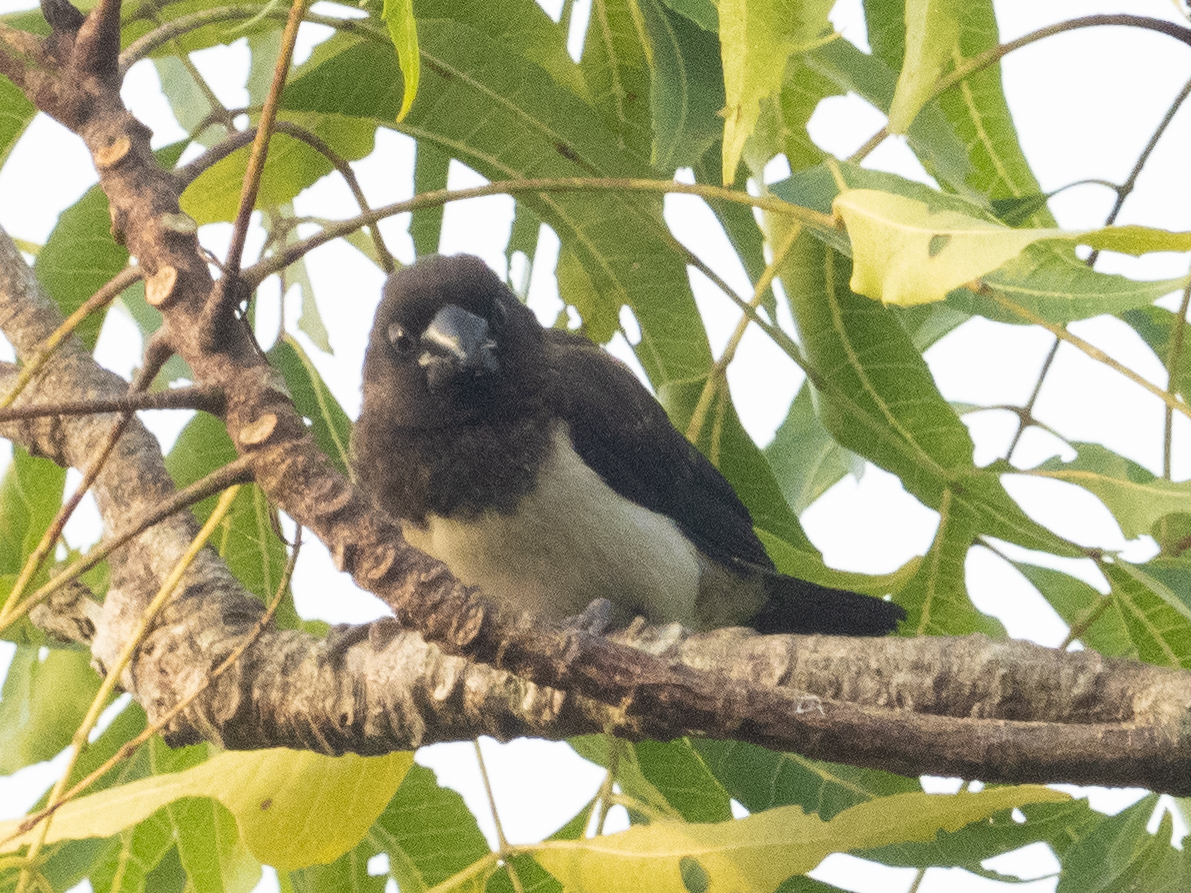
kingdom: Animalia
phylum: Chordata
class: Aves
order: Passeriformes
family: Estrildidae
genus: Lonchura
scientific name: Lonchura striata
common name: White-rumped munia
